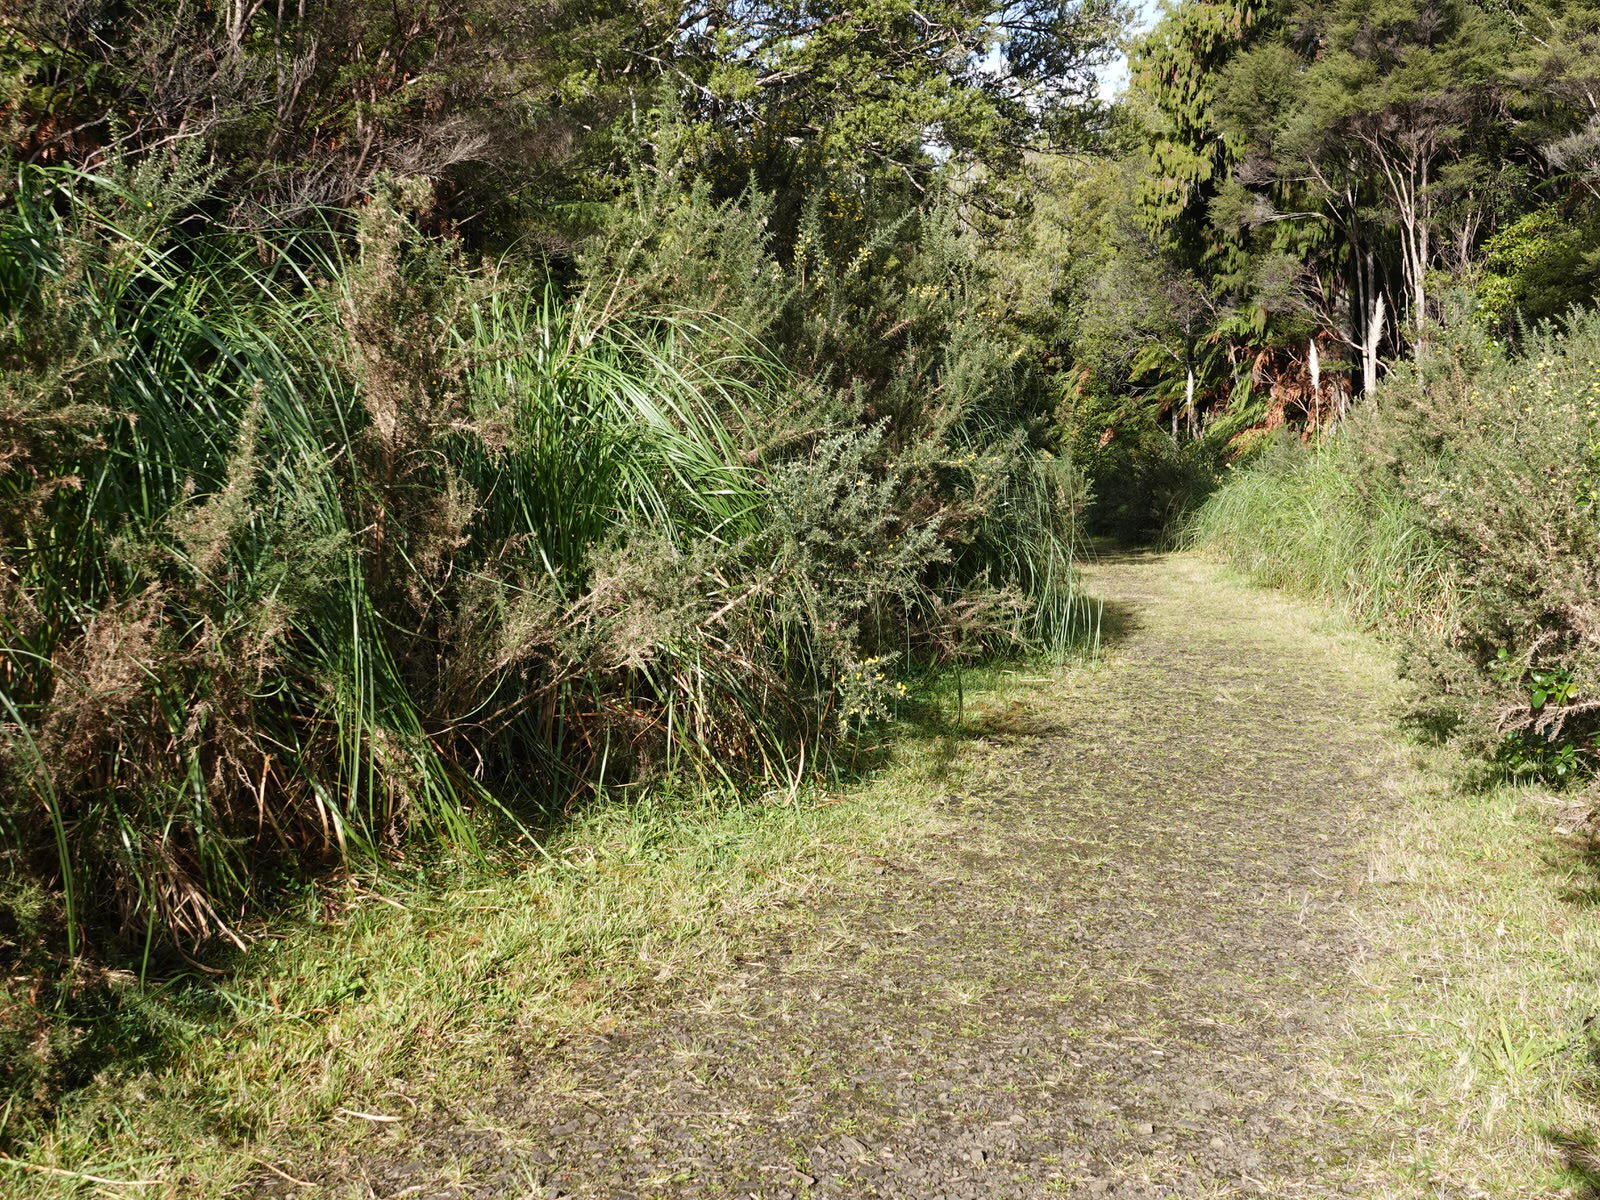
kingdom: Bacteria
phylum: Cyanobacteria
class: Cyanobacteriia
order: Cyanobacteriales
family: Nostocaceae
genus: Nostoc
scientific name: Nostoc commune
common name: Star jelly
